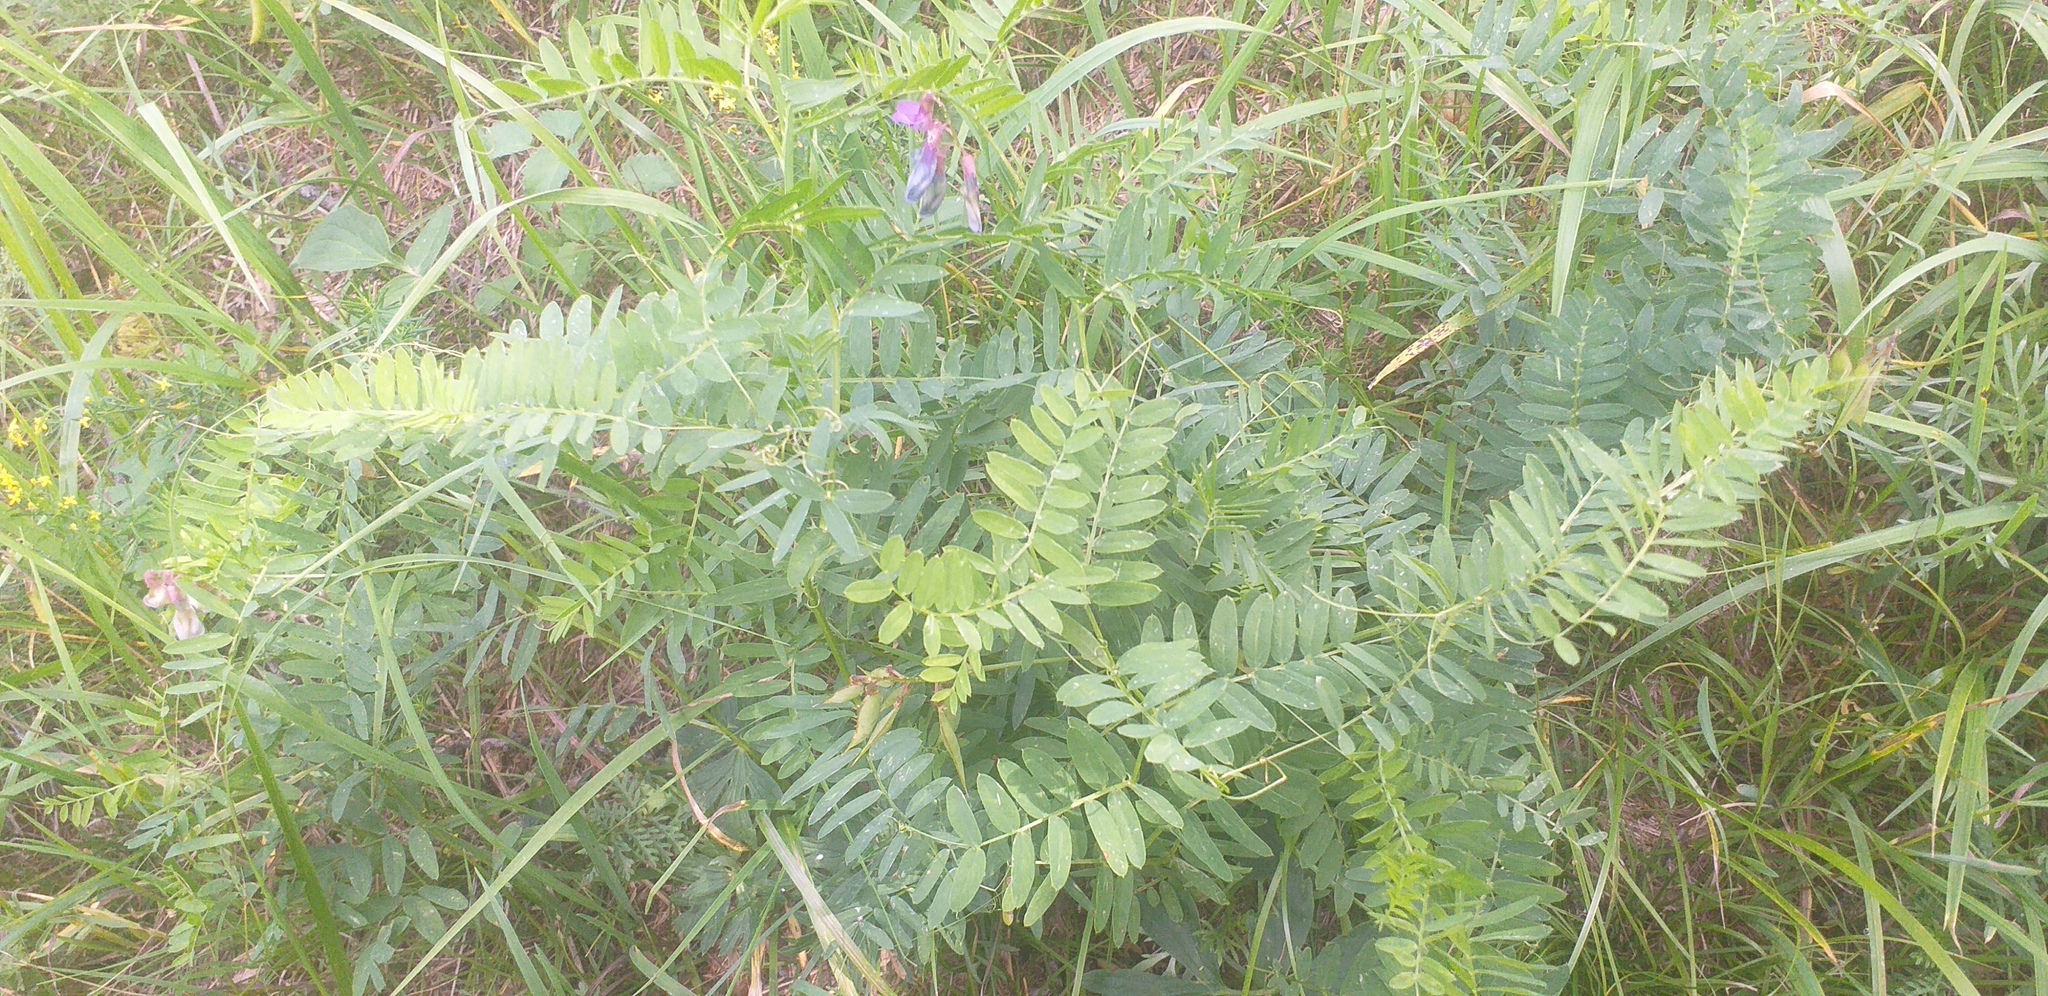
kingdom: Plantae
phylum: Tracheophyta
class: Magnoliopsida
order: Fabales
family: Fabaceae
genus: Vicia
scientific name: Vicia cracca
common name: Bird vetch
